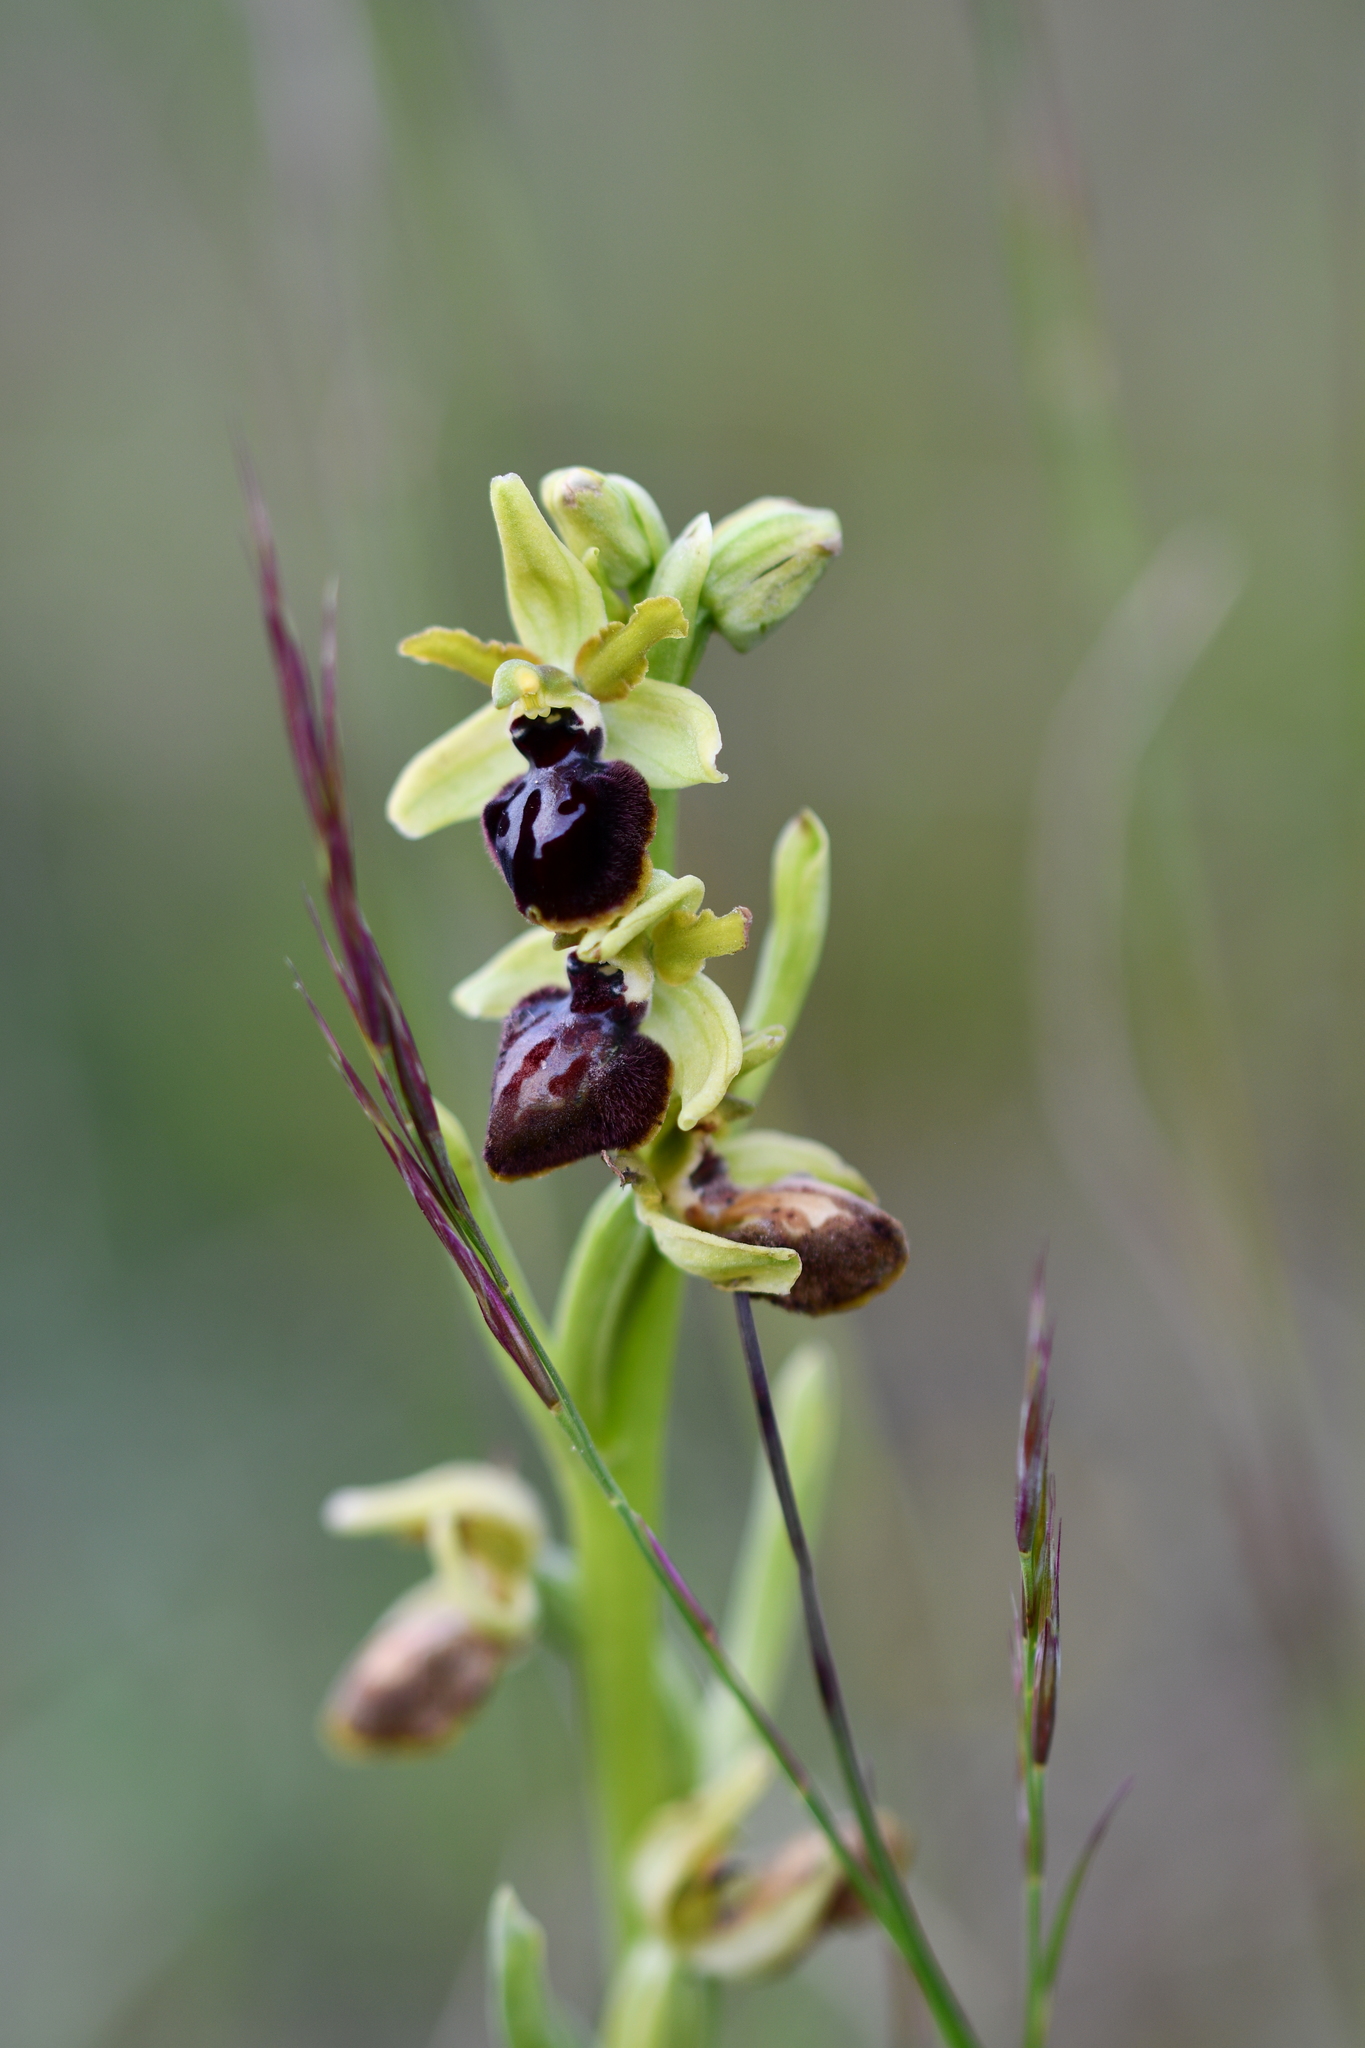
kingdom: Plantae
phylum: Tracheophyta
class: Liliopsida
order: Asparagales
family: Orchidaceae
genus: Ophrys
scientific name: Ophrys sphegodes
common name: Early spider-orchid
